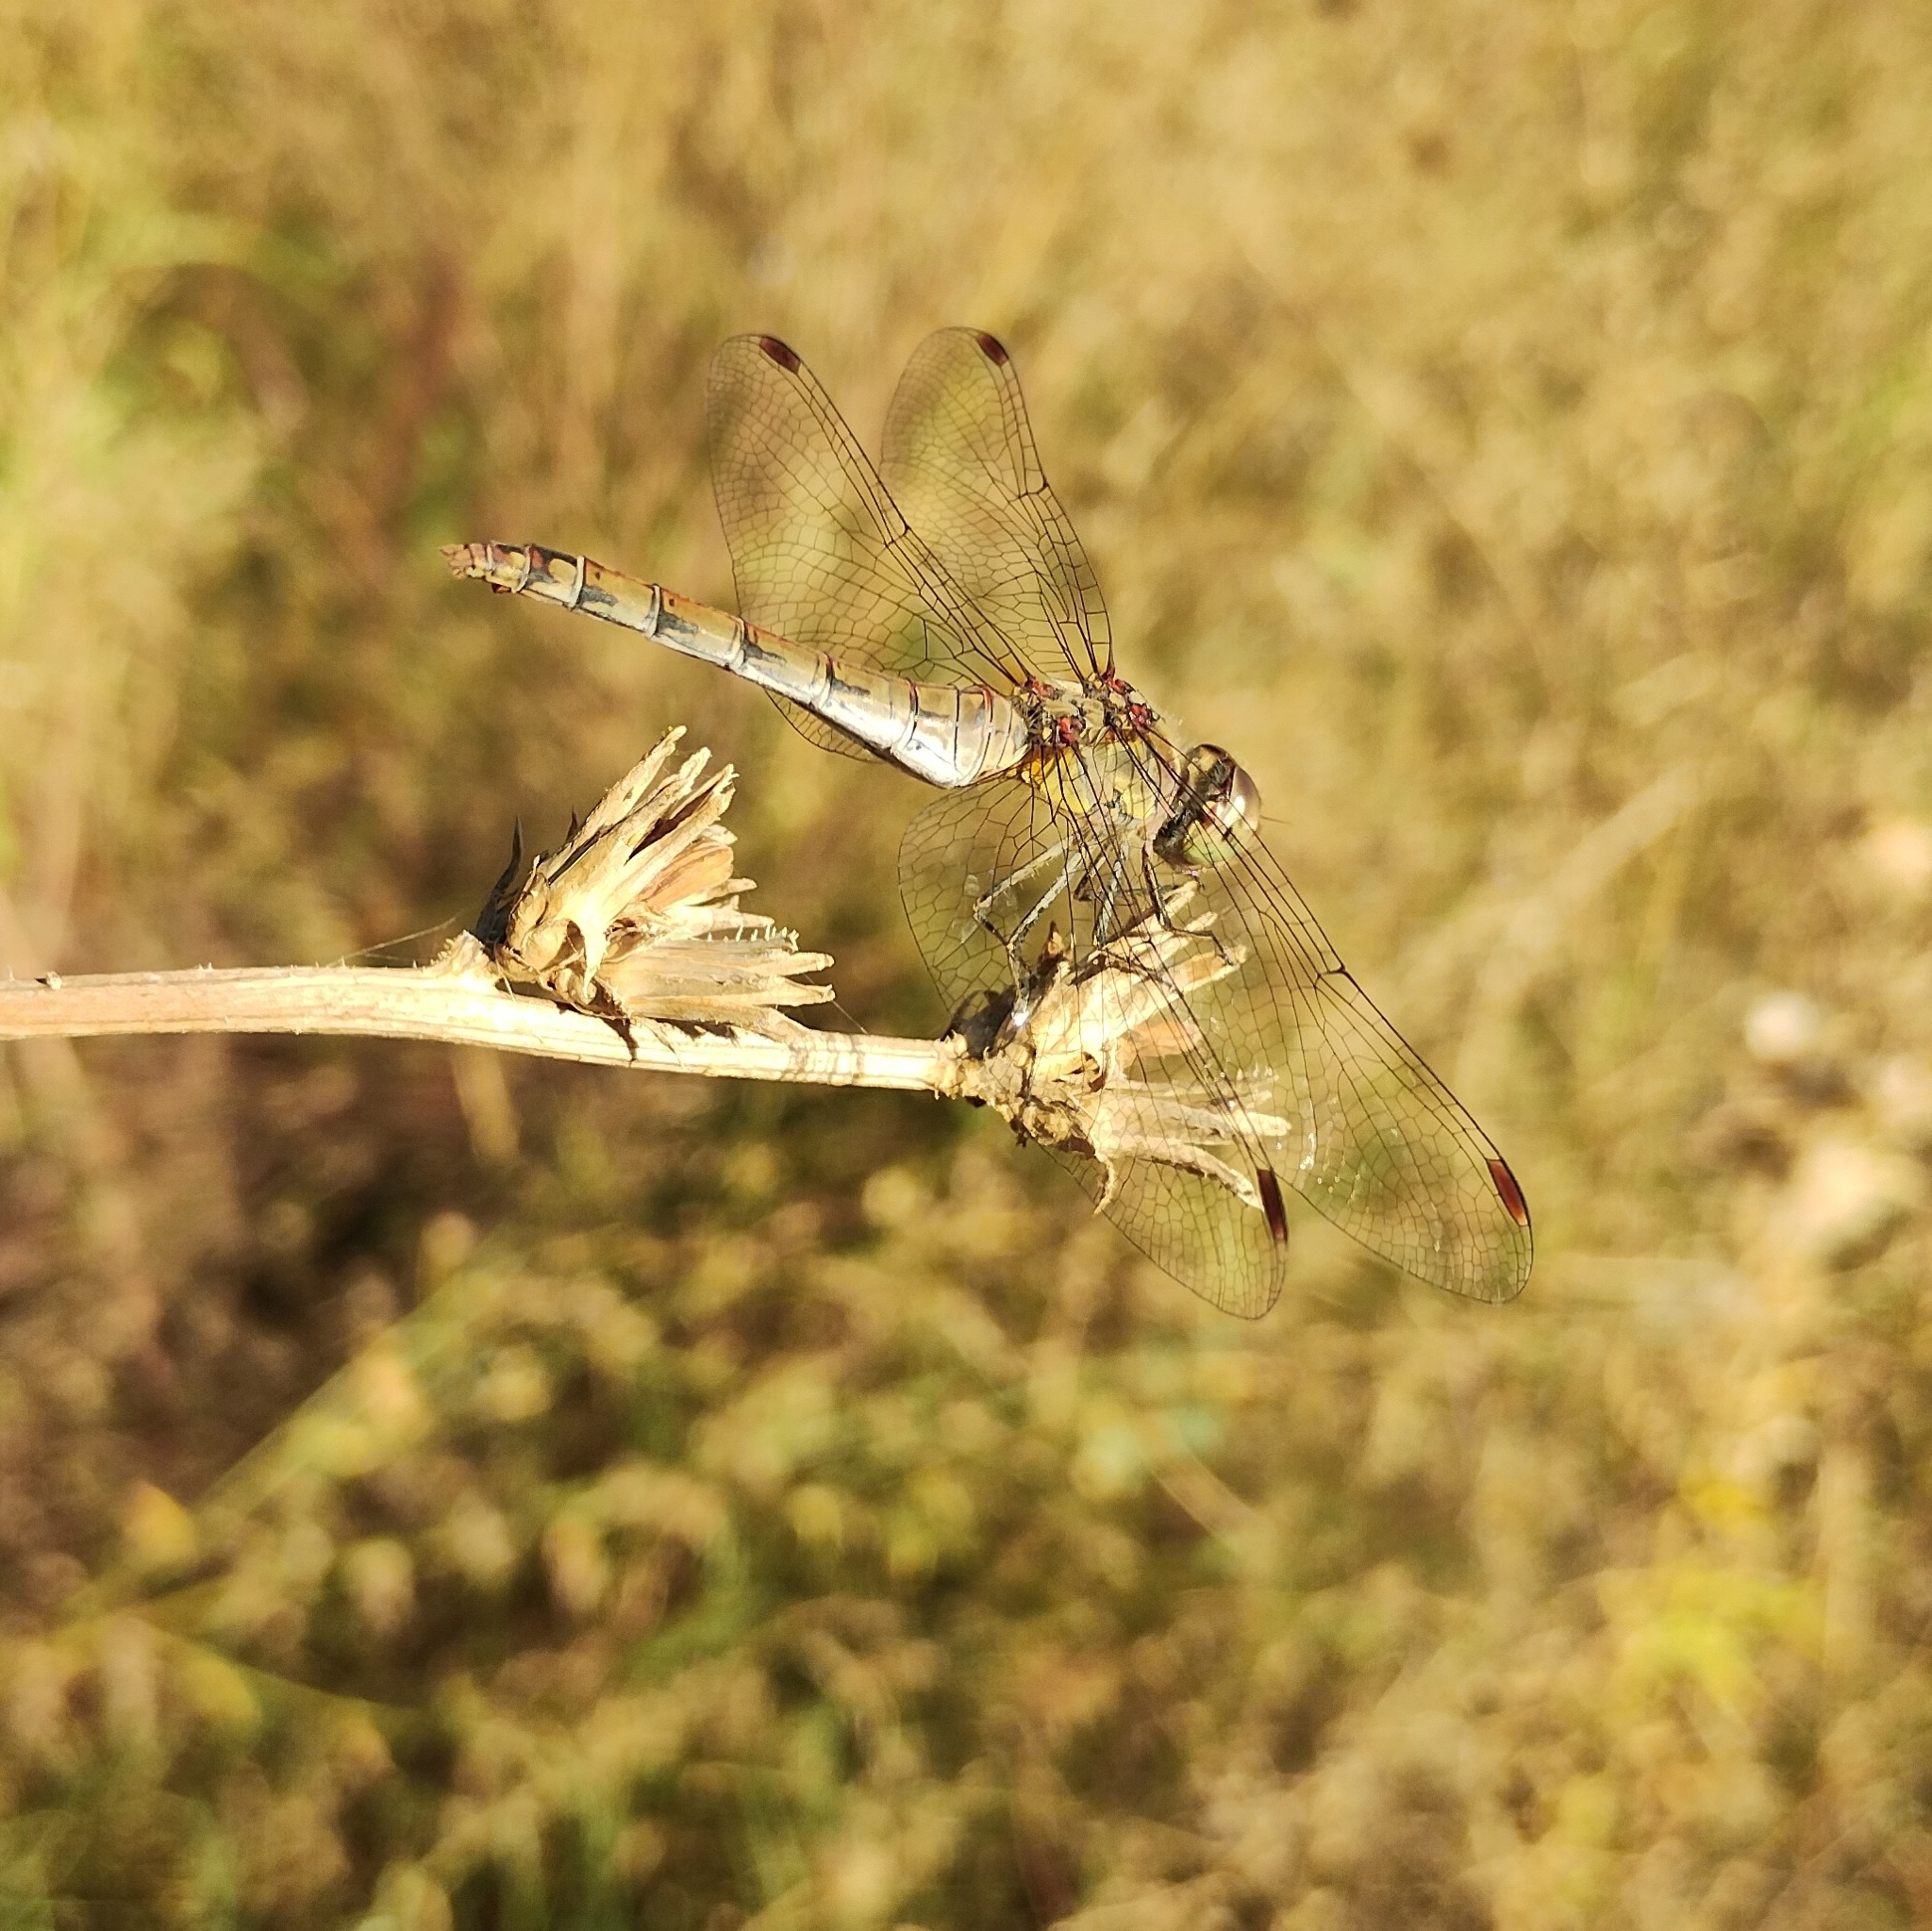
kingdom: Animalia
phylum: Arthropoda
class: Insecta
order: Odonata
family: Libellulidae
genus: Sympetrum
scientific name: Sympetrum striolatum
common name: Common darter
